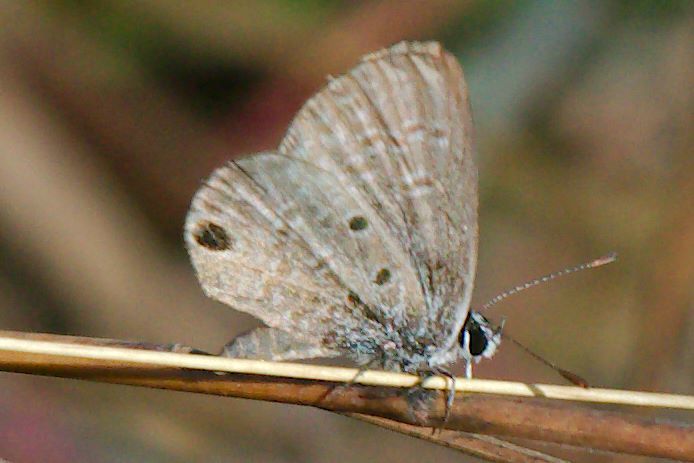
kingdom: Animalia
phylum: Arthropoda
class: Insecta
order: Lepidoptera
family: Lycaenidae
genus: Hemiargus
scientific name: Hemiargus ceraunus
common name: Ceraunus blue
